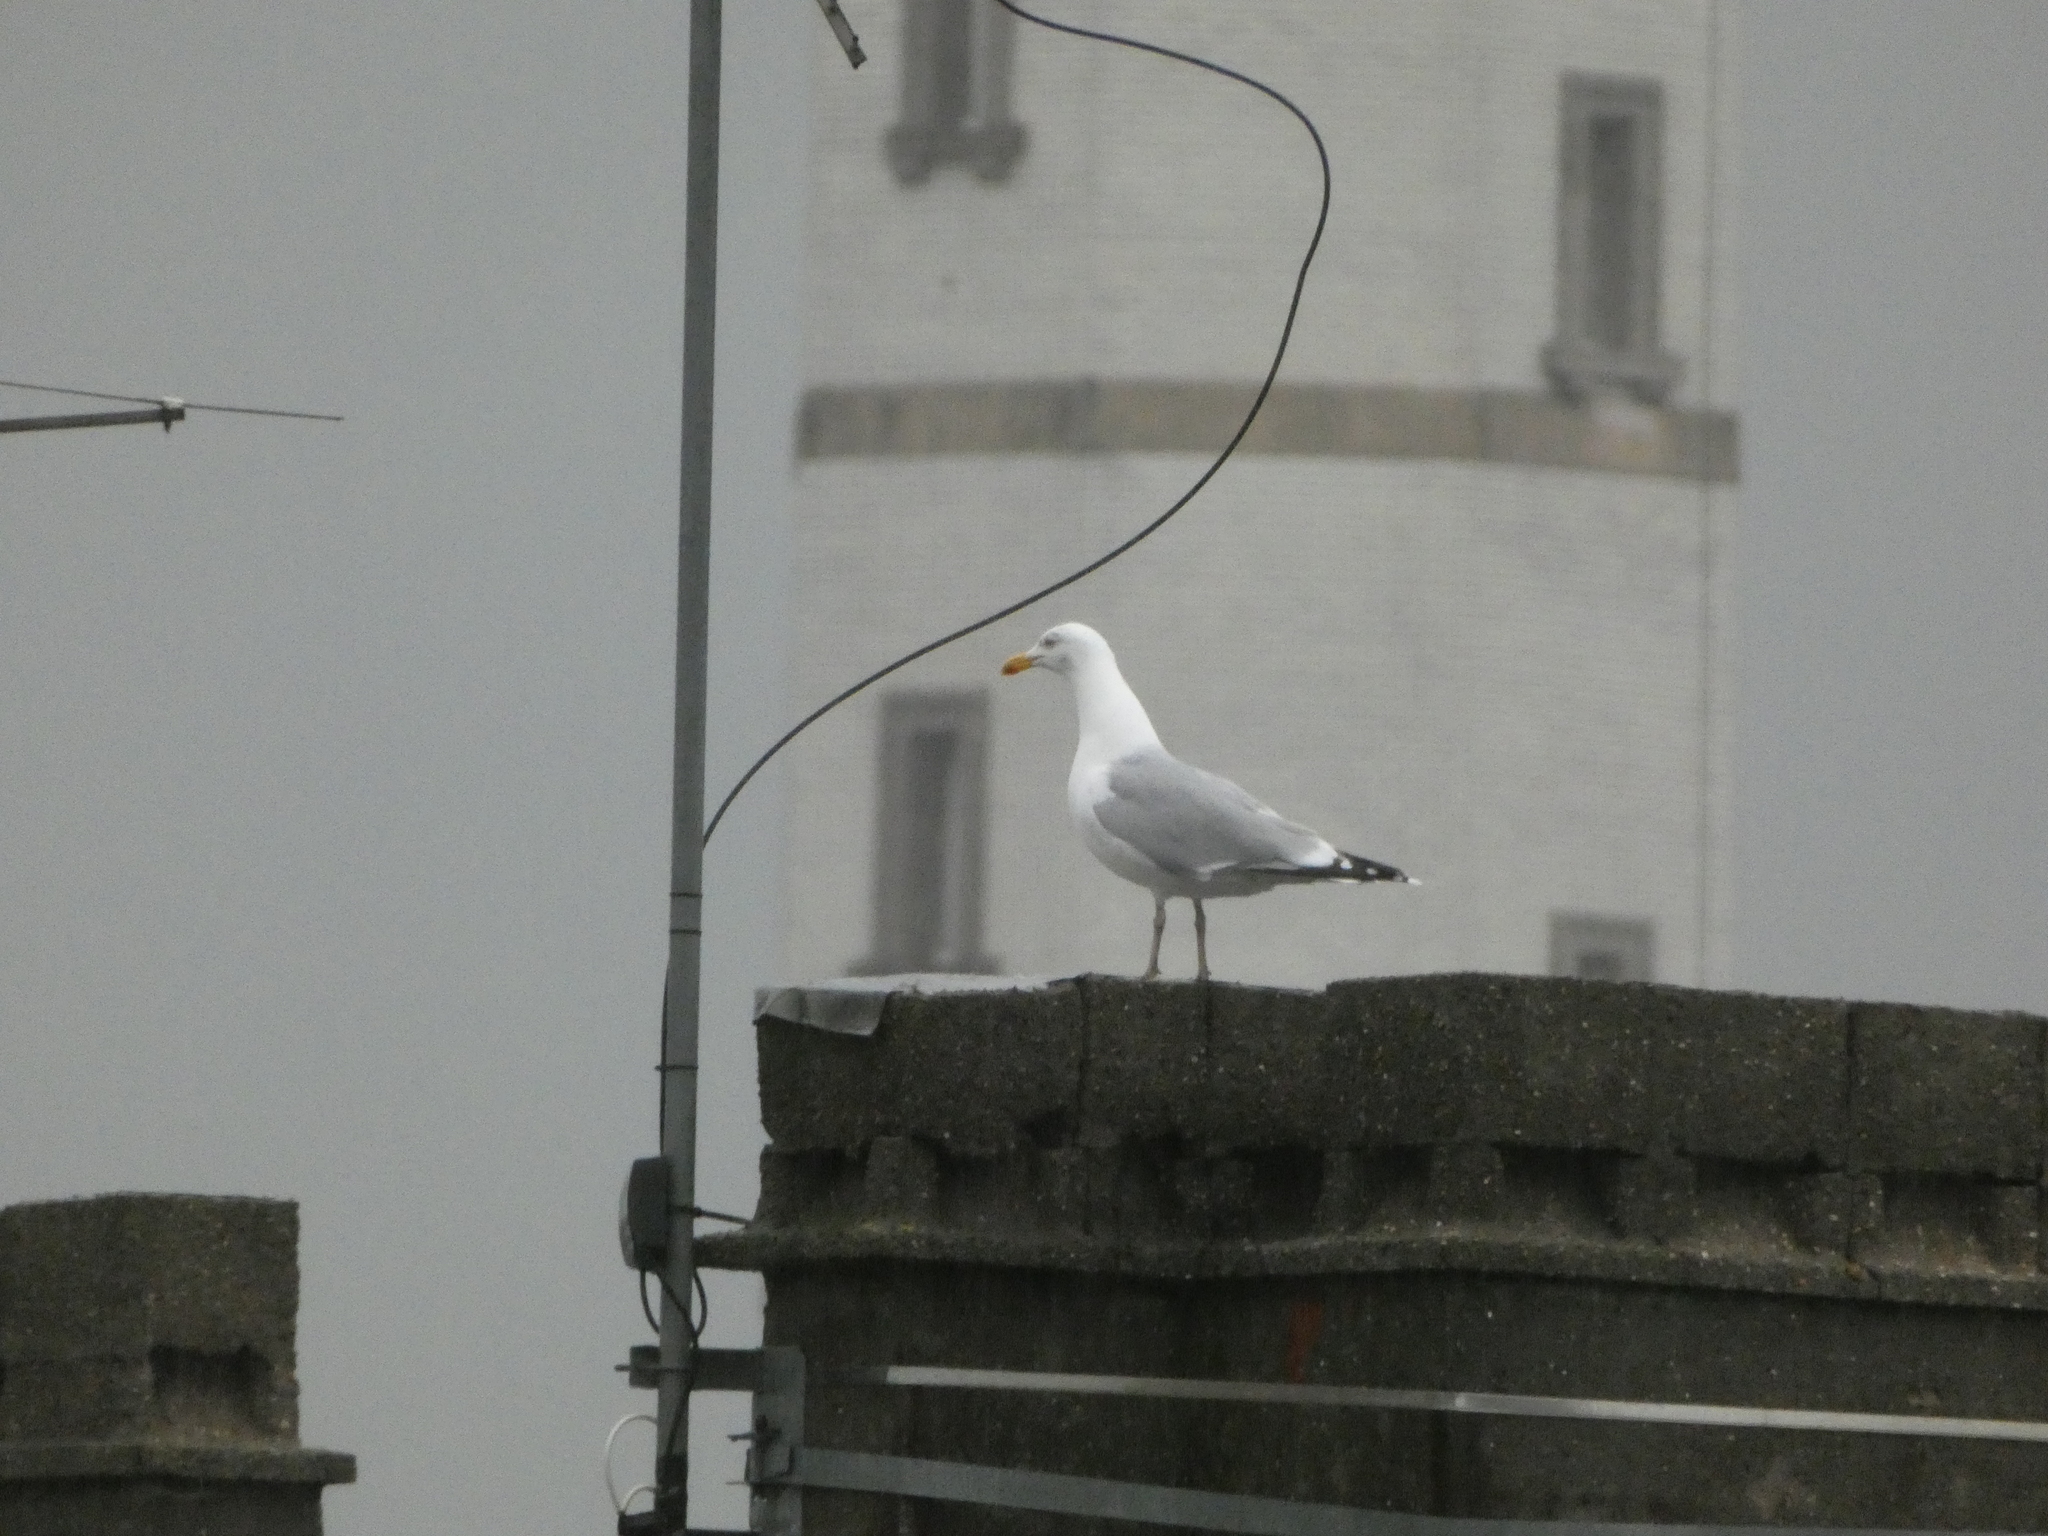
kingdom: Animalia
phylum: Chordata
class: Aves
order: Charadriiformes
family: Laridae
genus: Larus
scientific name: Larus argentatus
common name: Herring gull
